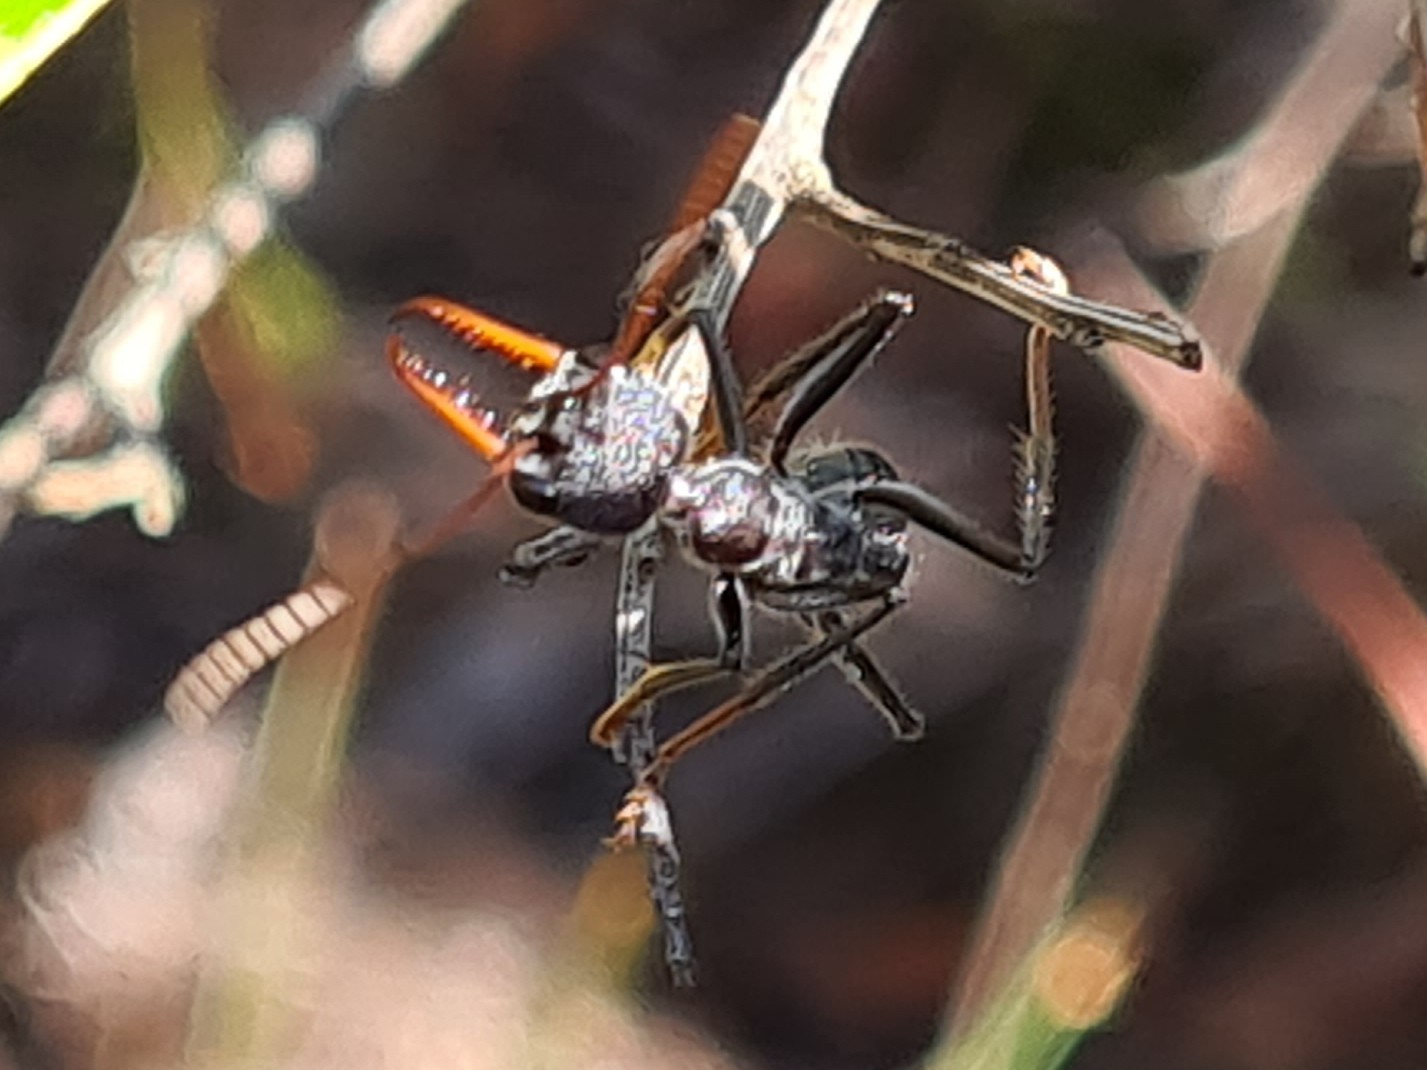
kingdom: Animalia
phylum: Arthropoda
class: Insecta
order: Hymenoptera
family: Formicidae
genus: Myrmecia
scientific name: Myrmecia simillima
